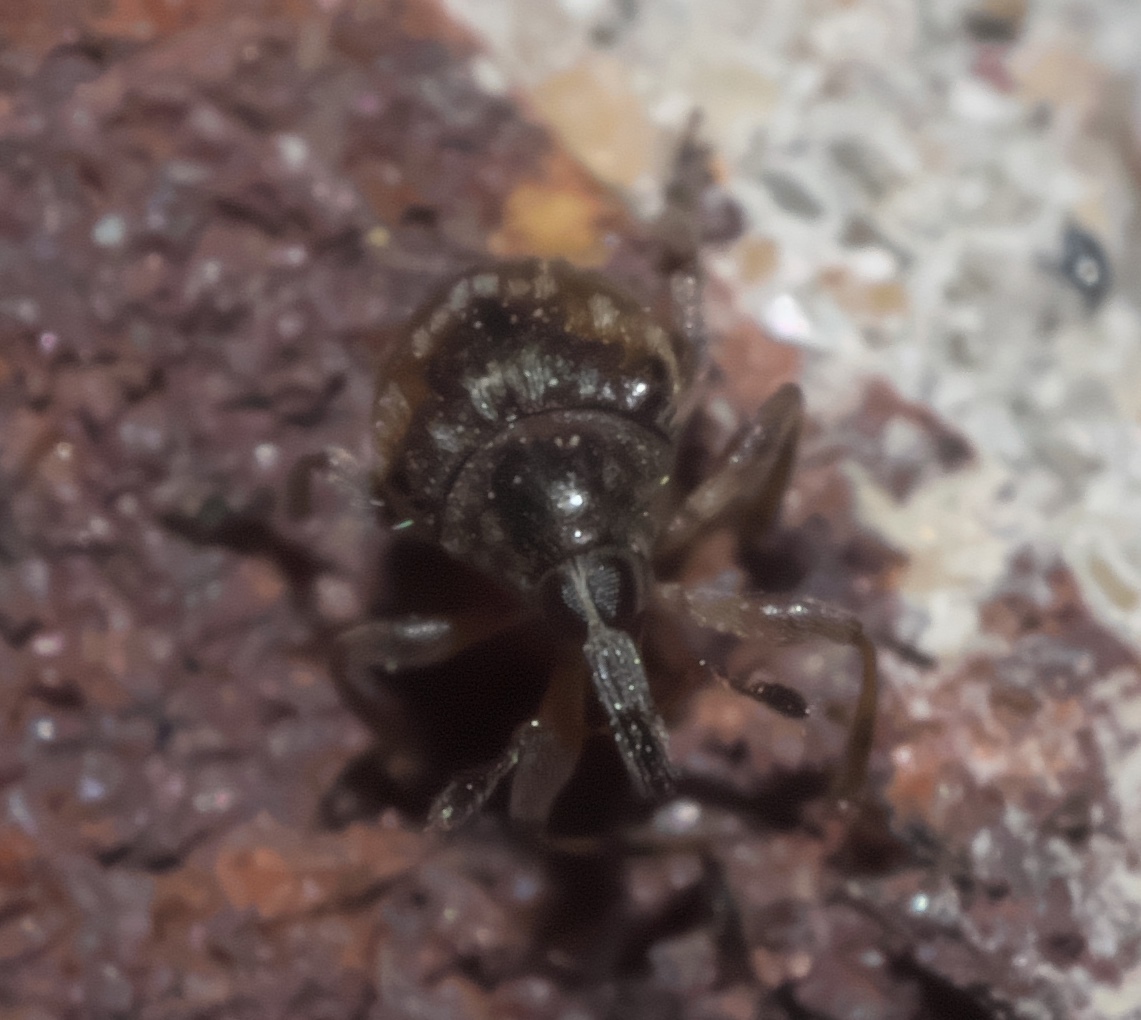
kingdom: Animalia
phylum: Arthropoda
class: Insecta
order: Coleoptera
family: Brentidae
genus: Nanodactylus
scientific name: Nanodactylus
